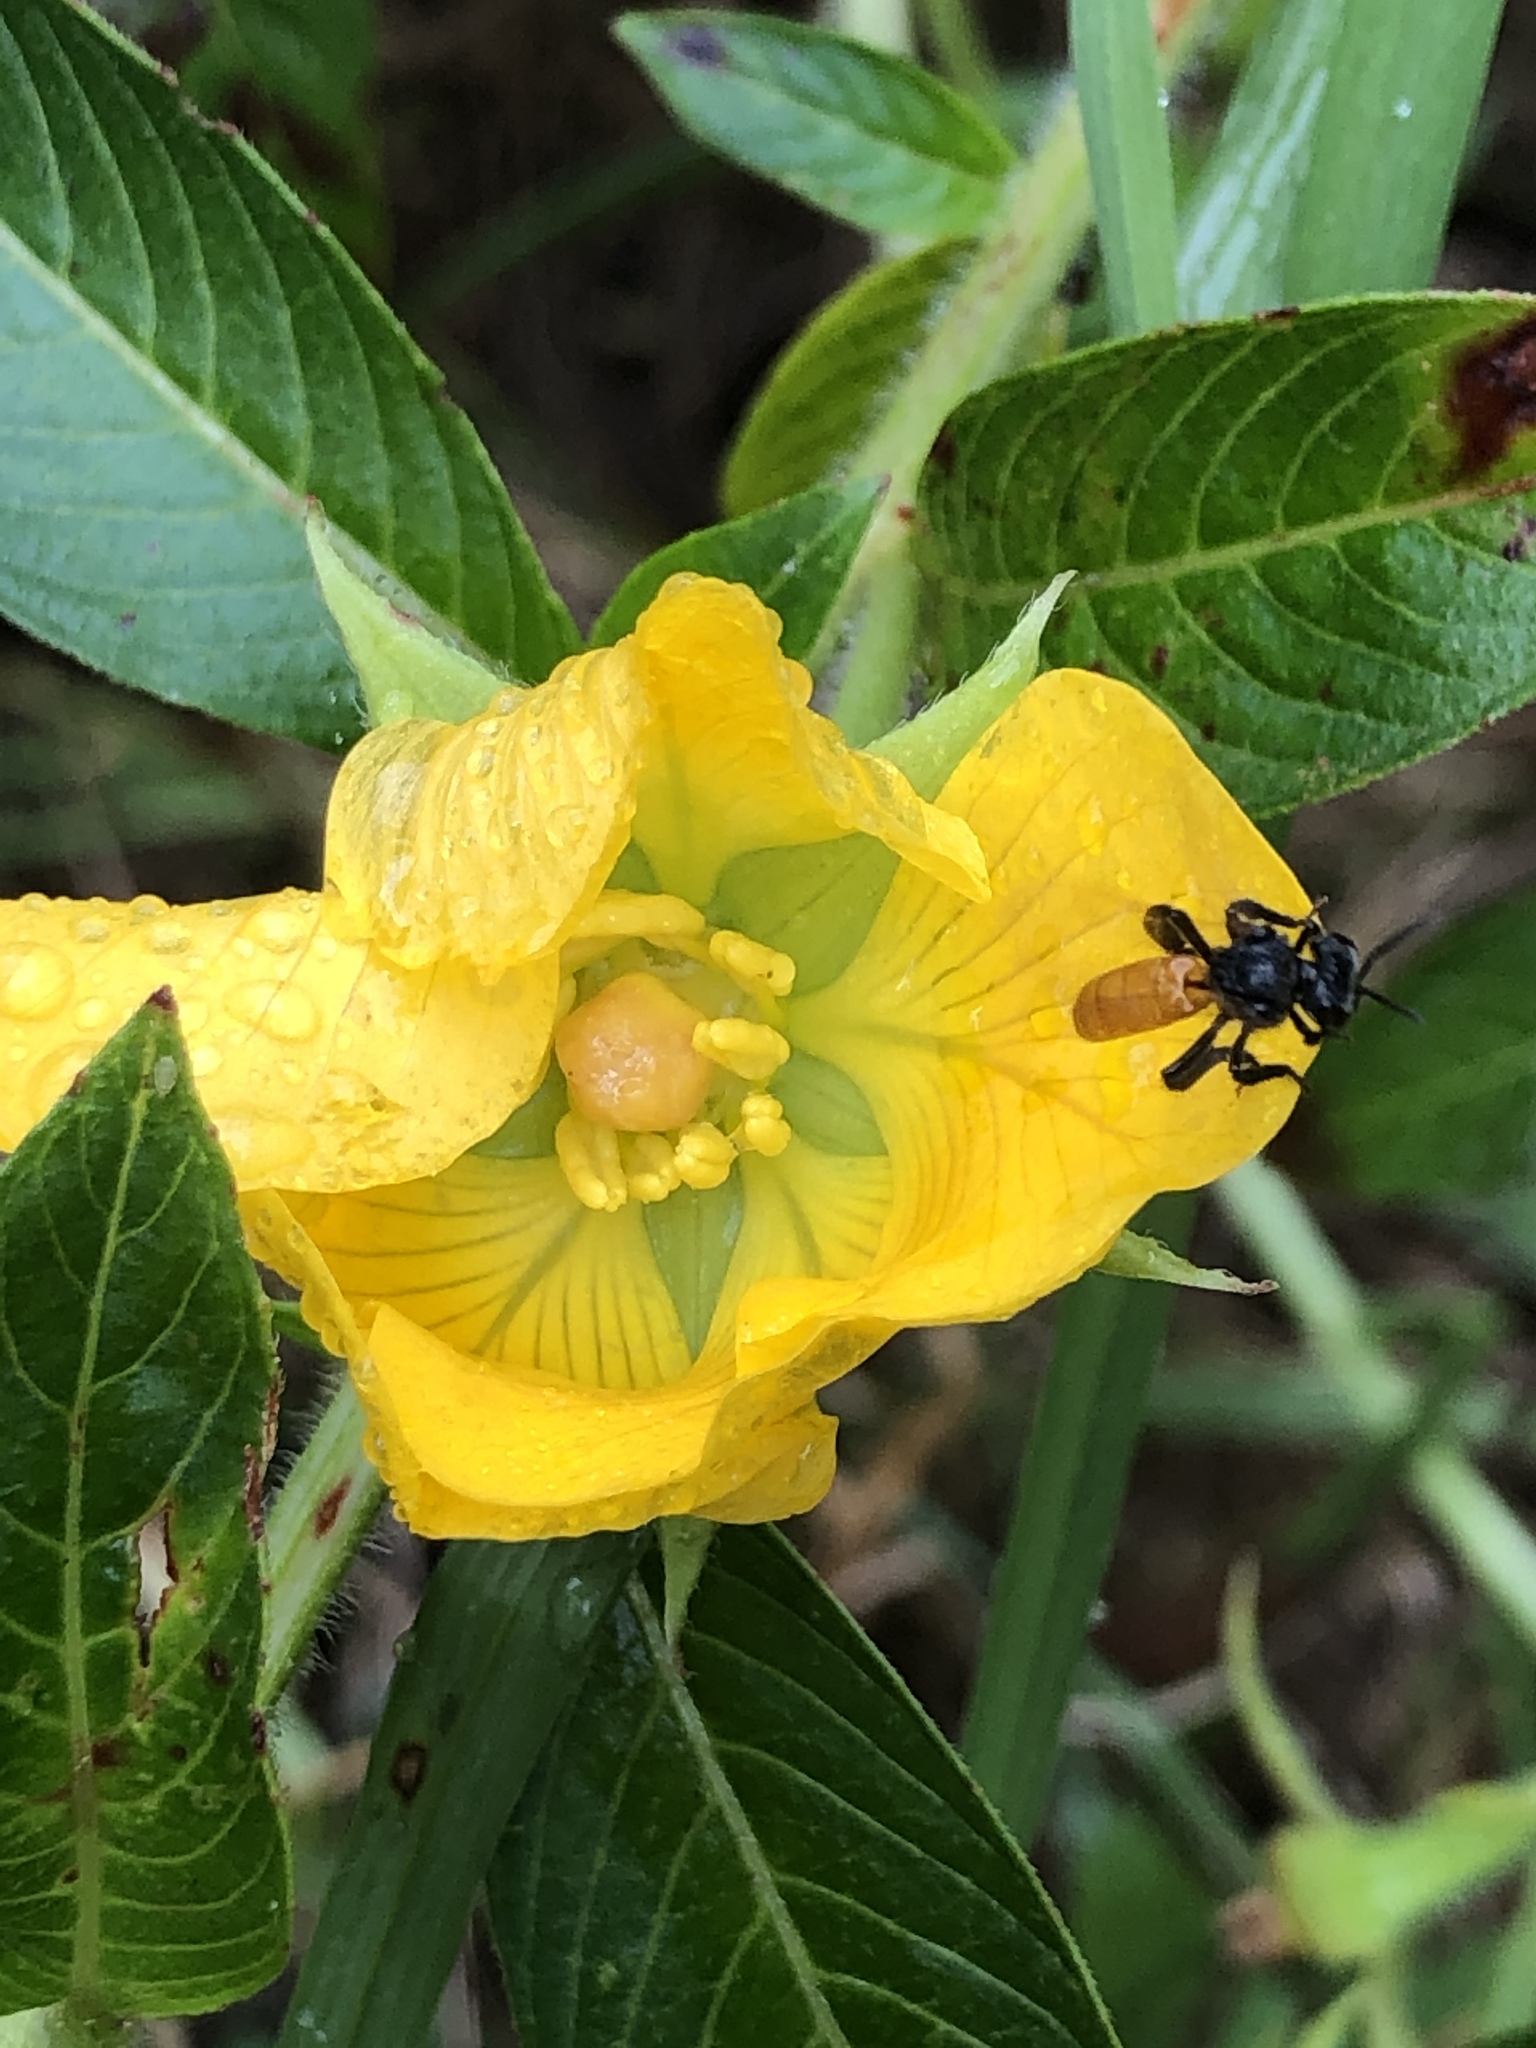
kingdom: Animalia
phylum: Arthropoda
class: Insecta
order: Hymenoptera
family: Apidae
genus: Trigona
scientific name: Trigona fulviventris
